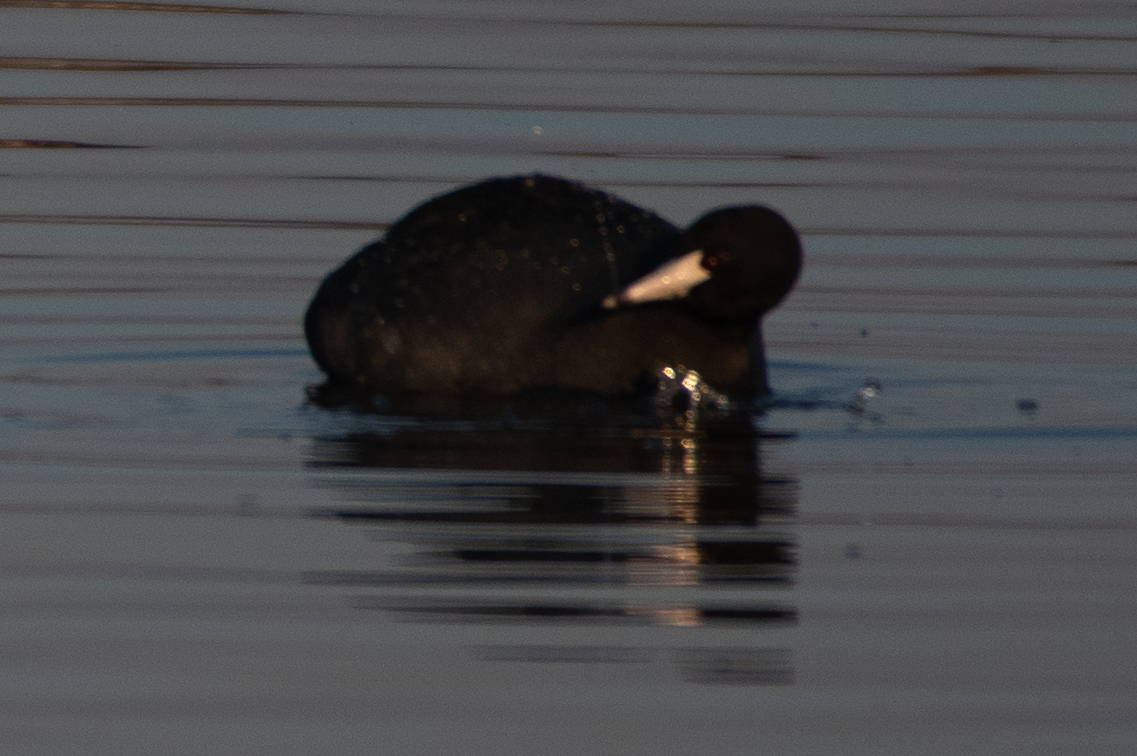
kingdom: Animalia
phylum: Chordata
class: Aves
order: Gruiformes
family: Rallidae
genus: Fulica
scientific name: Fulica americana
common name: American coot
